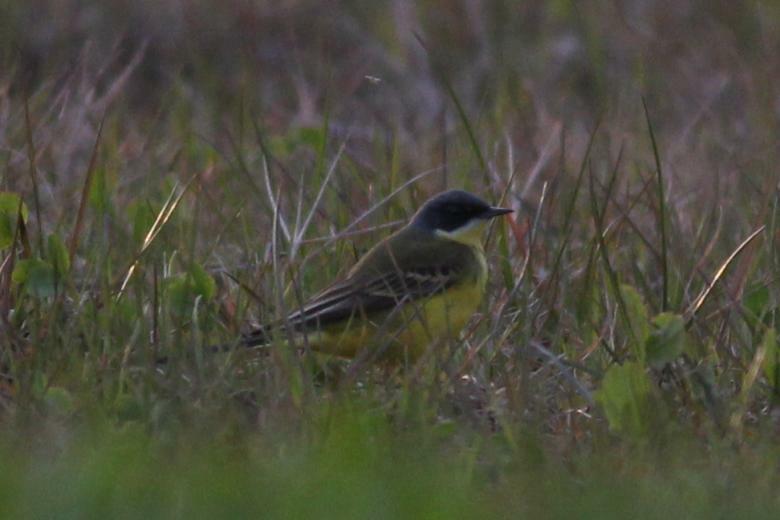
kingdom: Animalia
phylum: Chordata
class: Aves
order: Passeriformes
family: Motacillidae
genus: Motacilla
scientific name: Motacilla flava
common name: Western yellow wagtail
